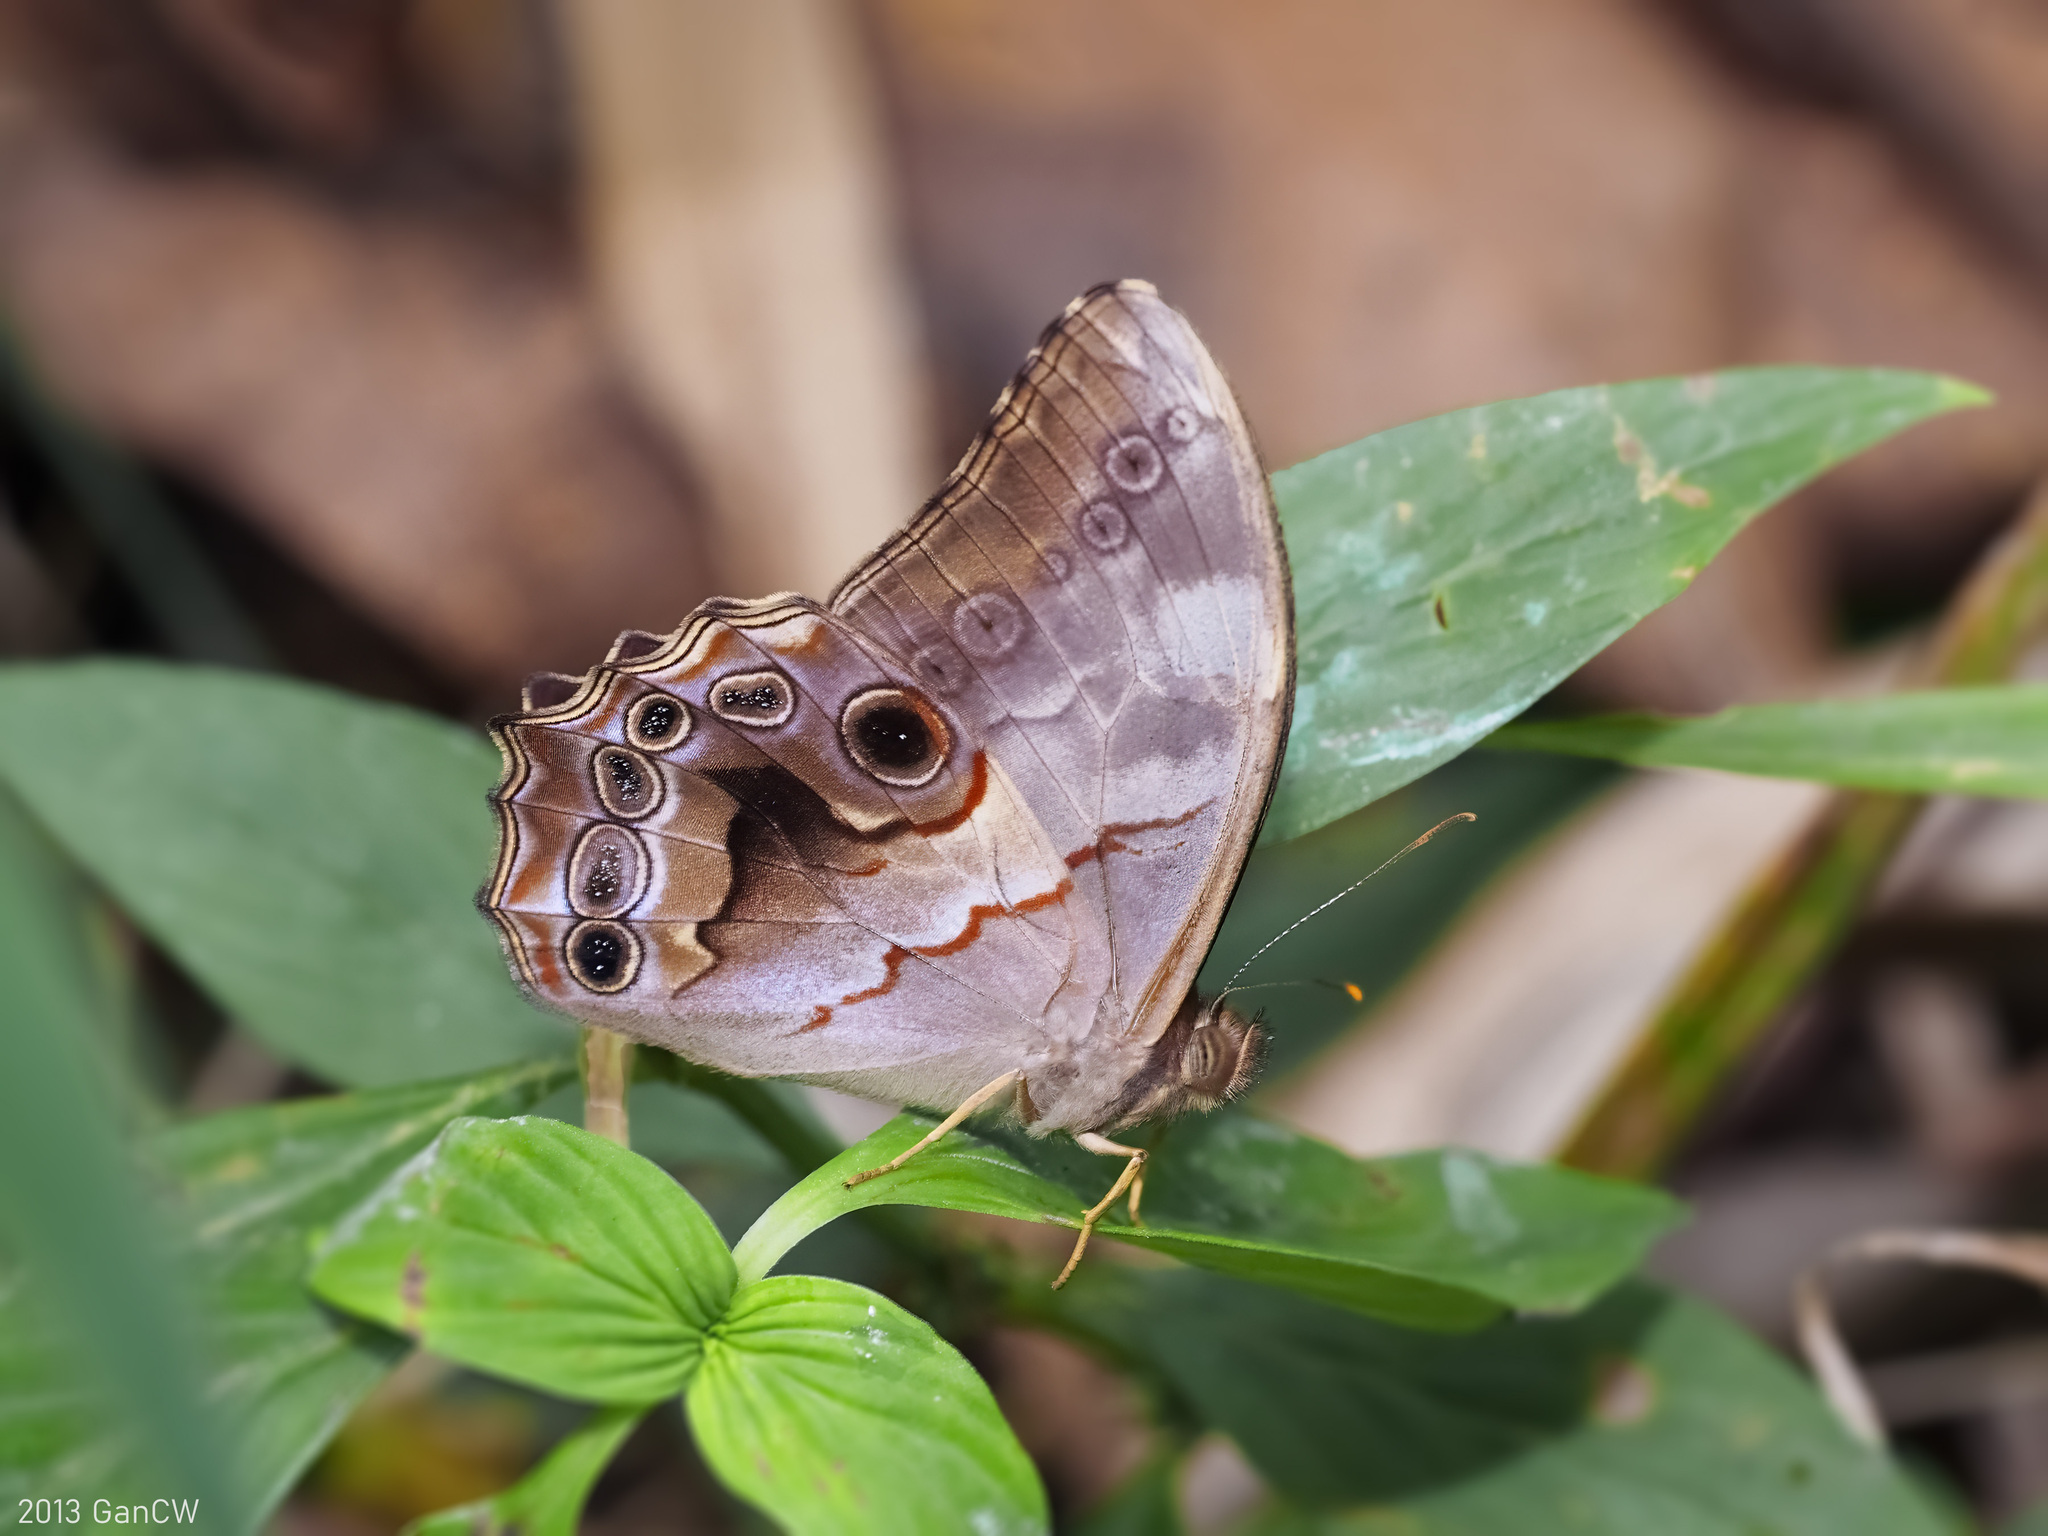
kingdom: Animalia
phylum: Arthropoda
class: Insecta
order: Lepidoptera
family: Nymphalidae
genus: Lethe
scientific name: Lethe chandica
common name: Angled red forester
